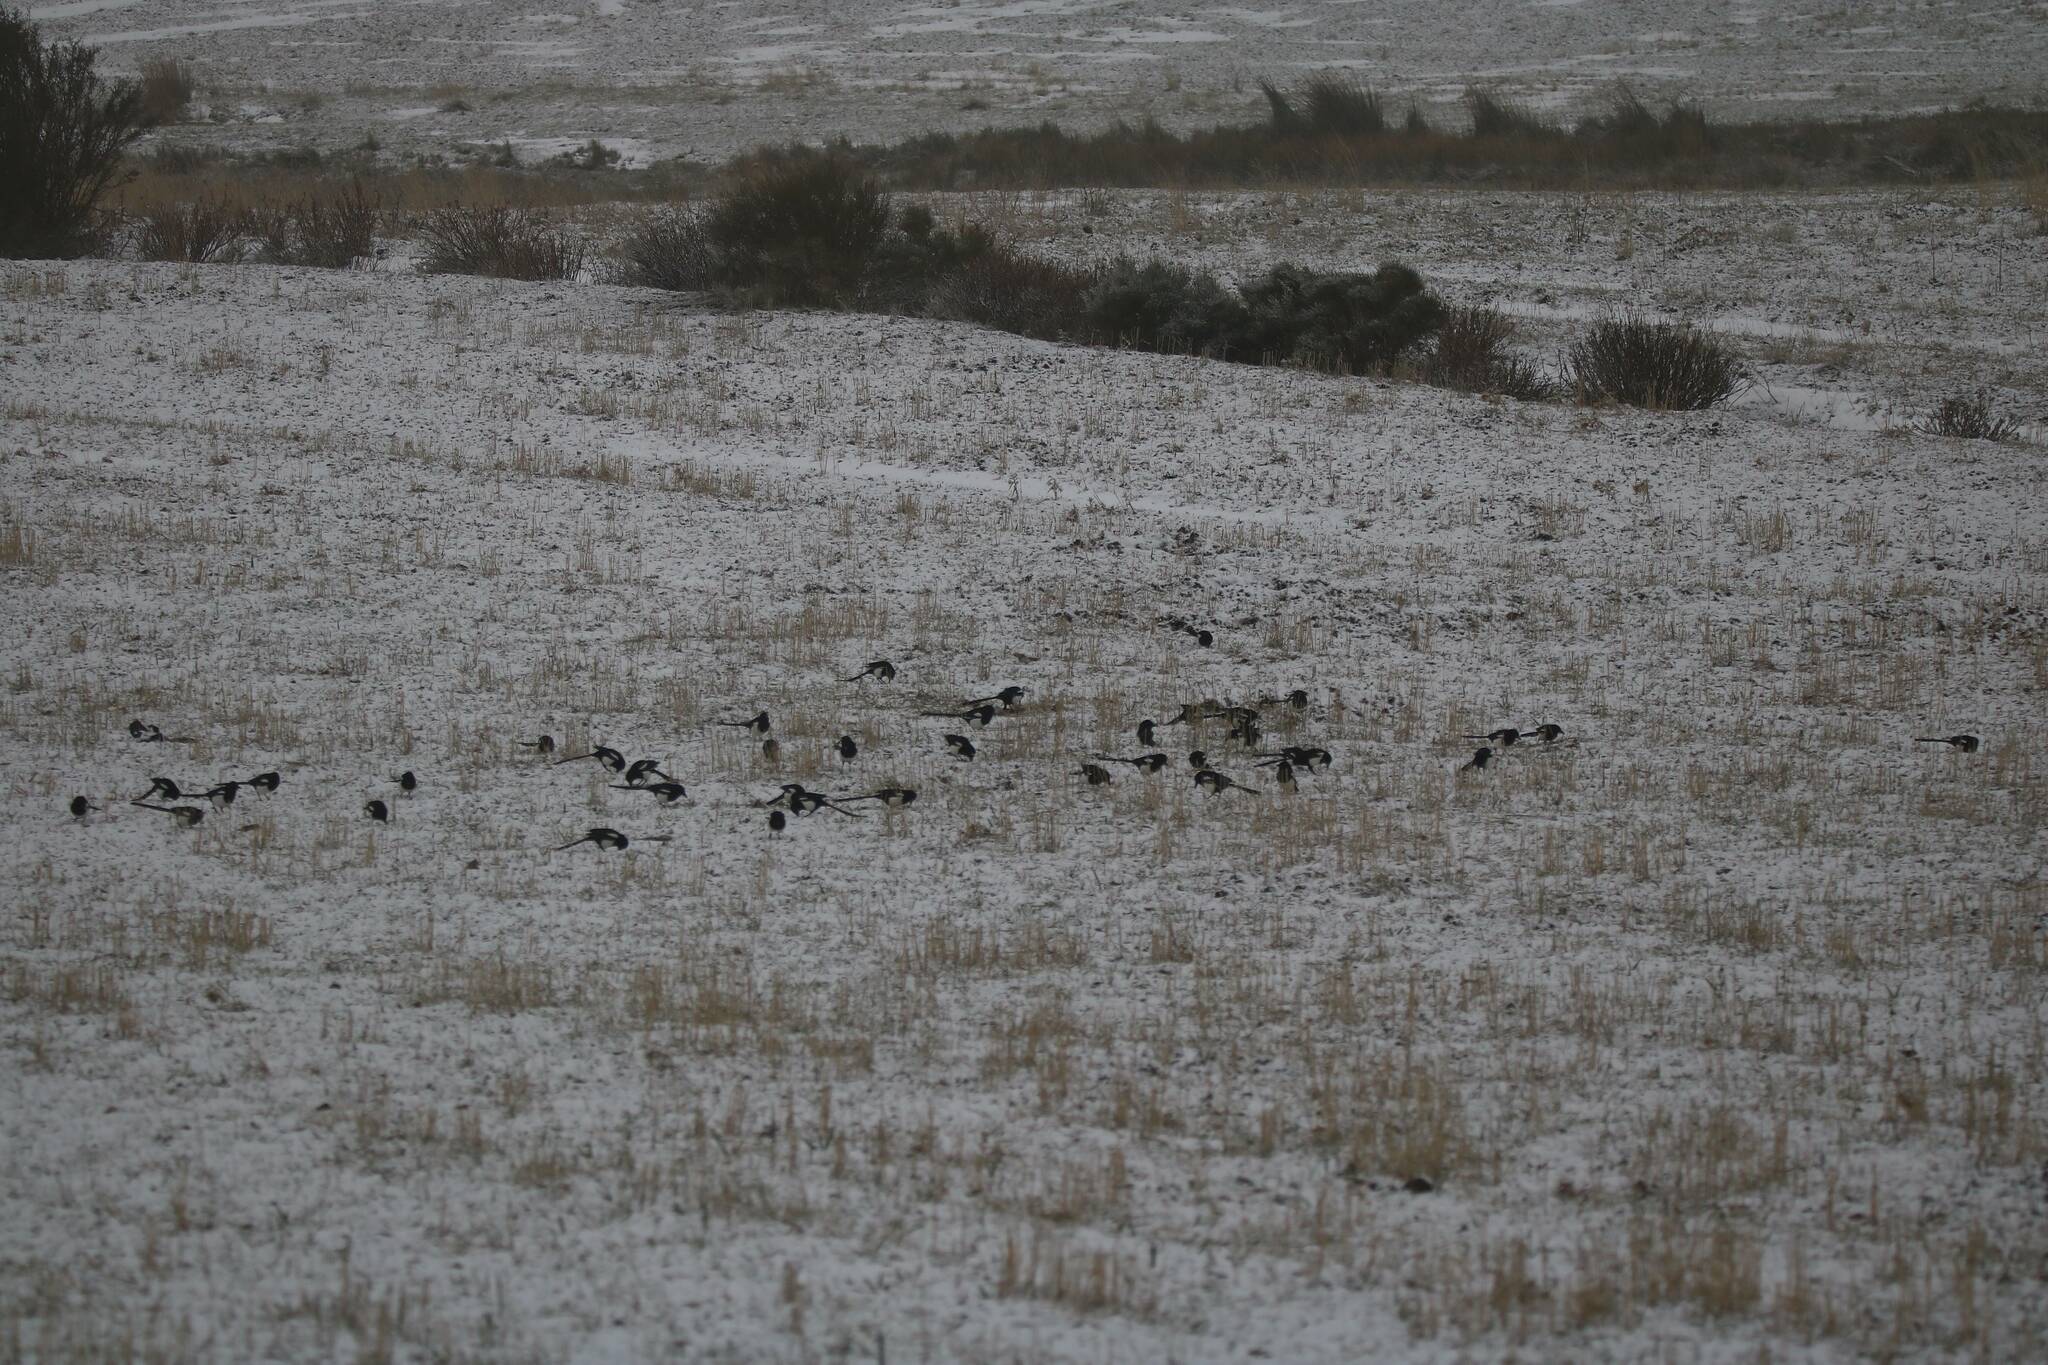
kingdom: Animalia
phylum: Chordata
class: Aves
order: Passeriformes
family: Corvidae
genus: Pica
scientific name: Pica mauritanica
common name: Maghreb magpie
